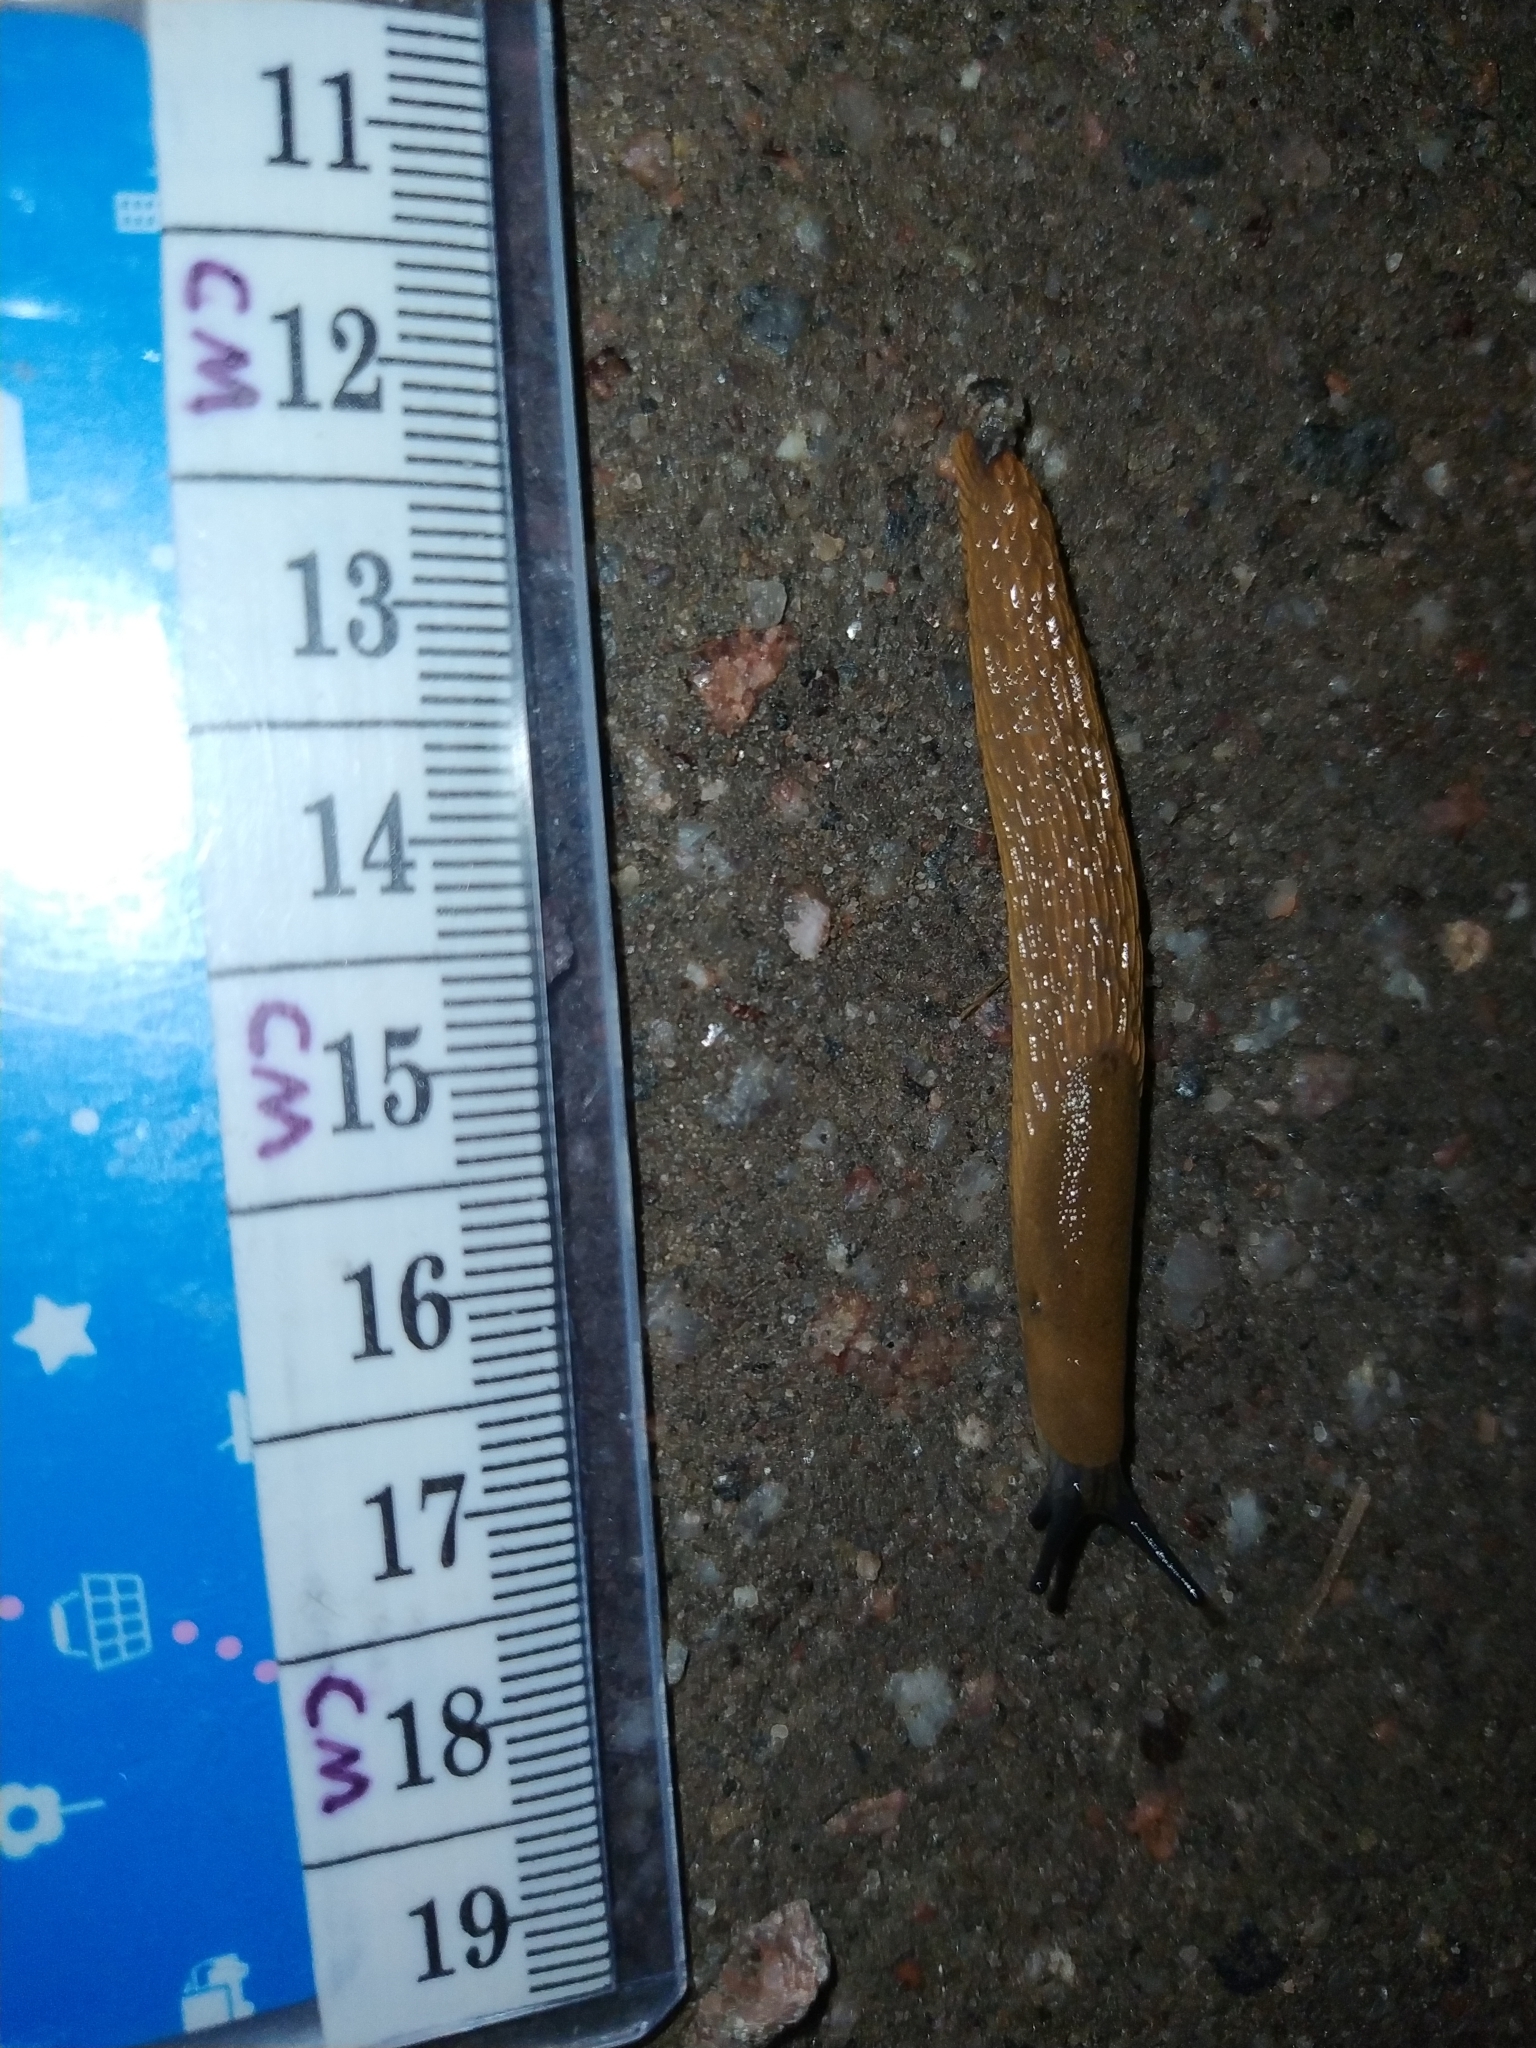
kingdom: Animalia
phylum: Mollusca
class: Gastropoda
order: Stylommatophora
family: Arionidae
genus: Arion
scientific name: Arion vulgaris
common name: Lusitanian slug
